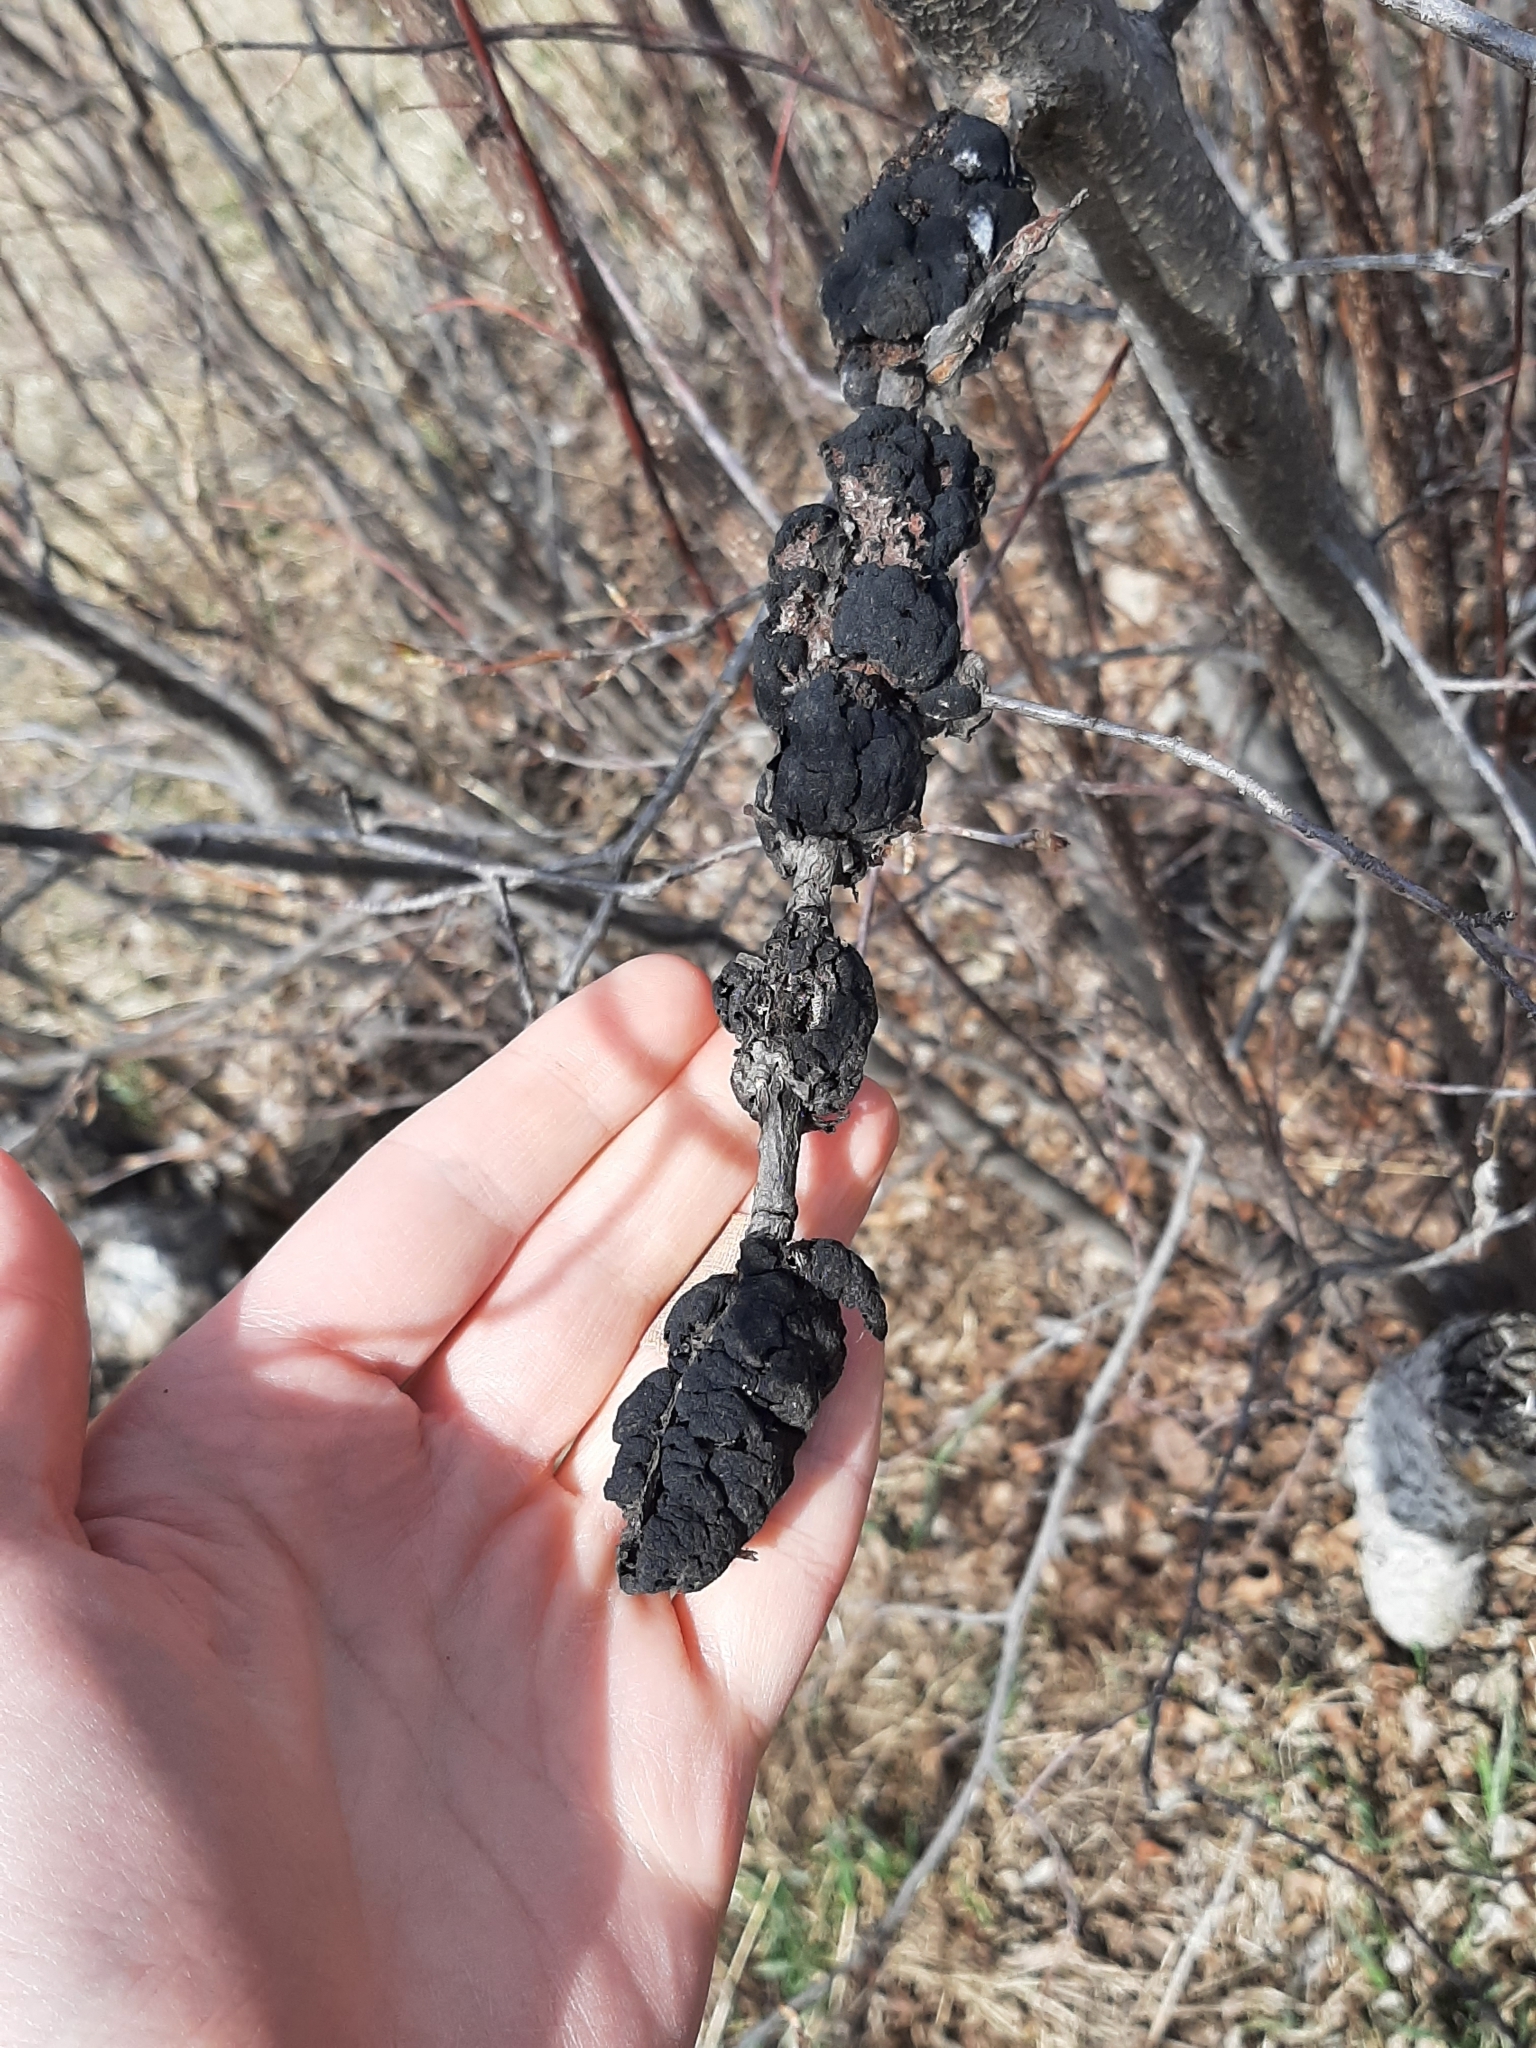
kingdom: Fungi
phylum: Ascomycota
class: Dothideomycetes
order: Venturiales
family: Venturiaceae
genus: Apiosporina
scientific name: Apiosporina morbosa
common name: Black knot
